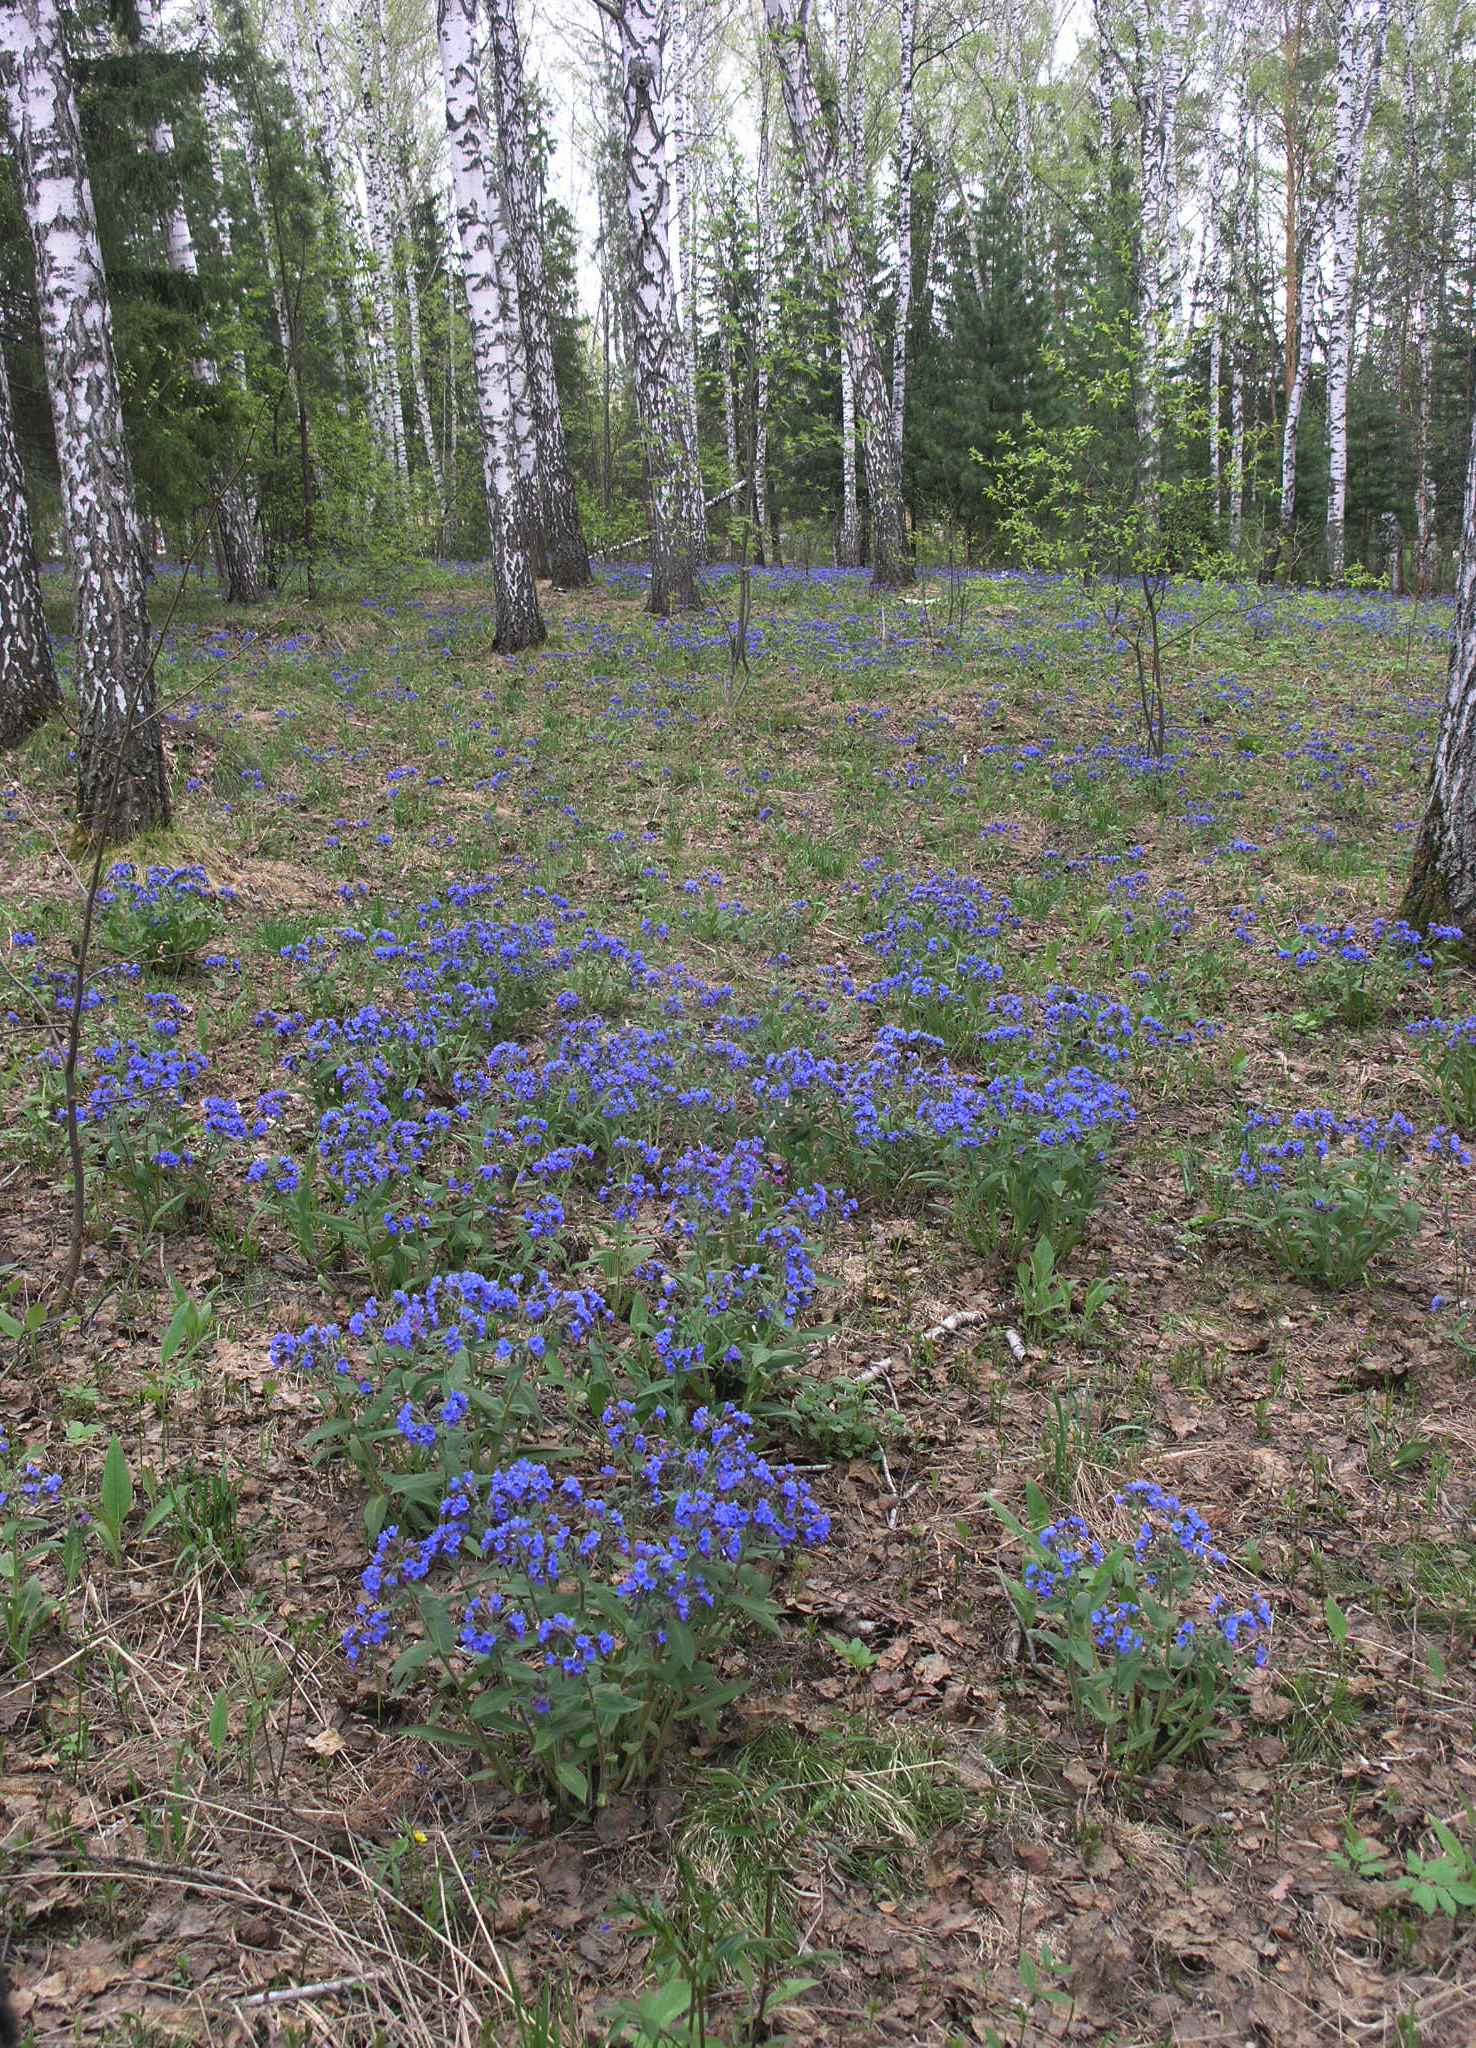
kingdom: Plantae
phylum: Tracheophyta
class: Magnoliopsida
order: Boraginales
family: Boraginaceae
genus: Pulmonaria
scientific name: Pulmonaria mollis
